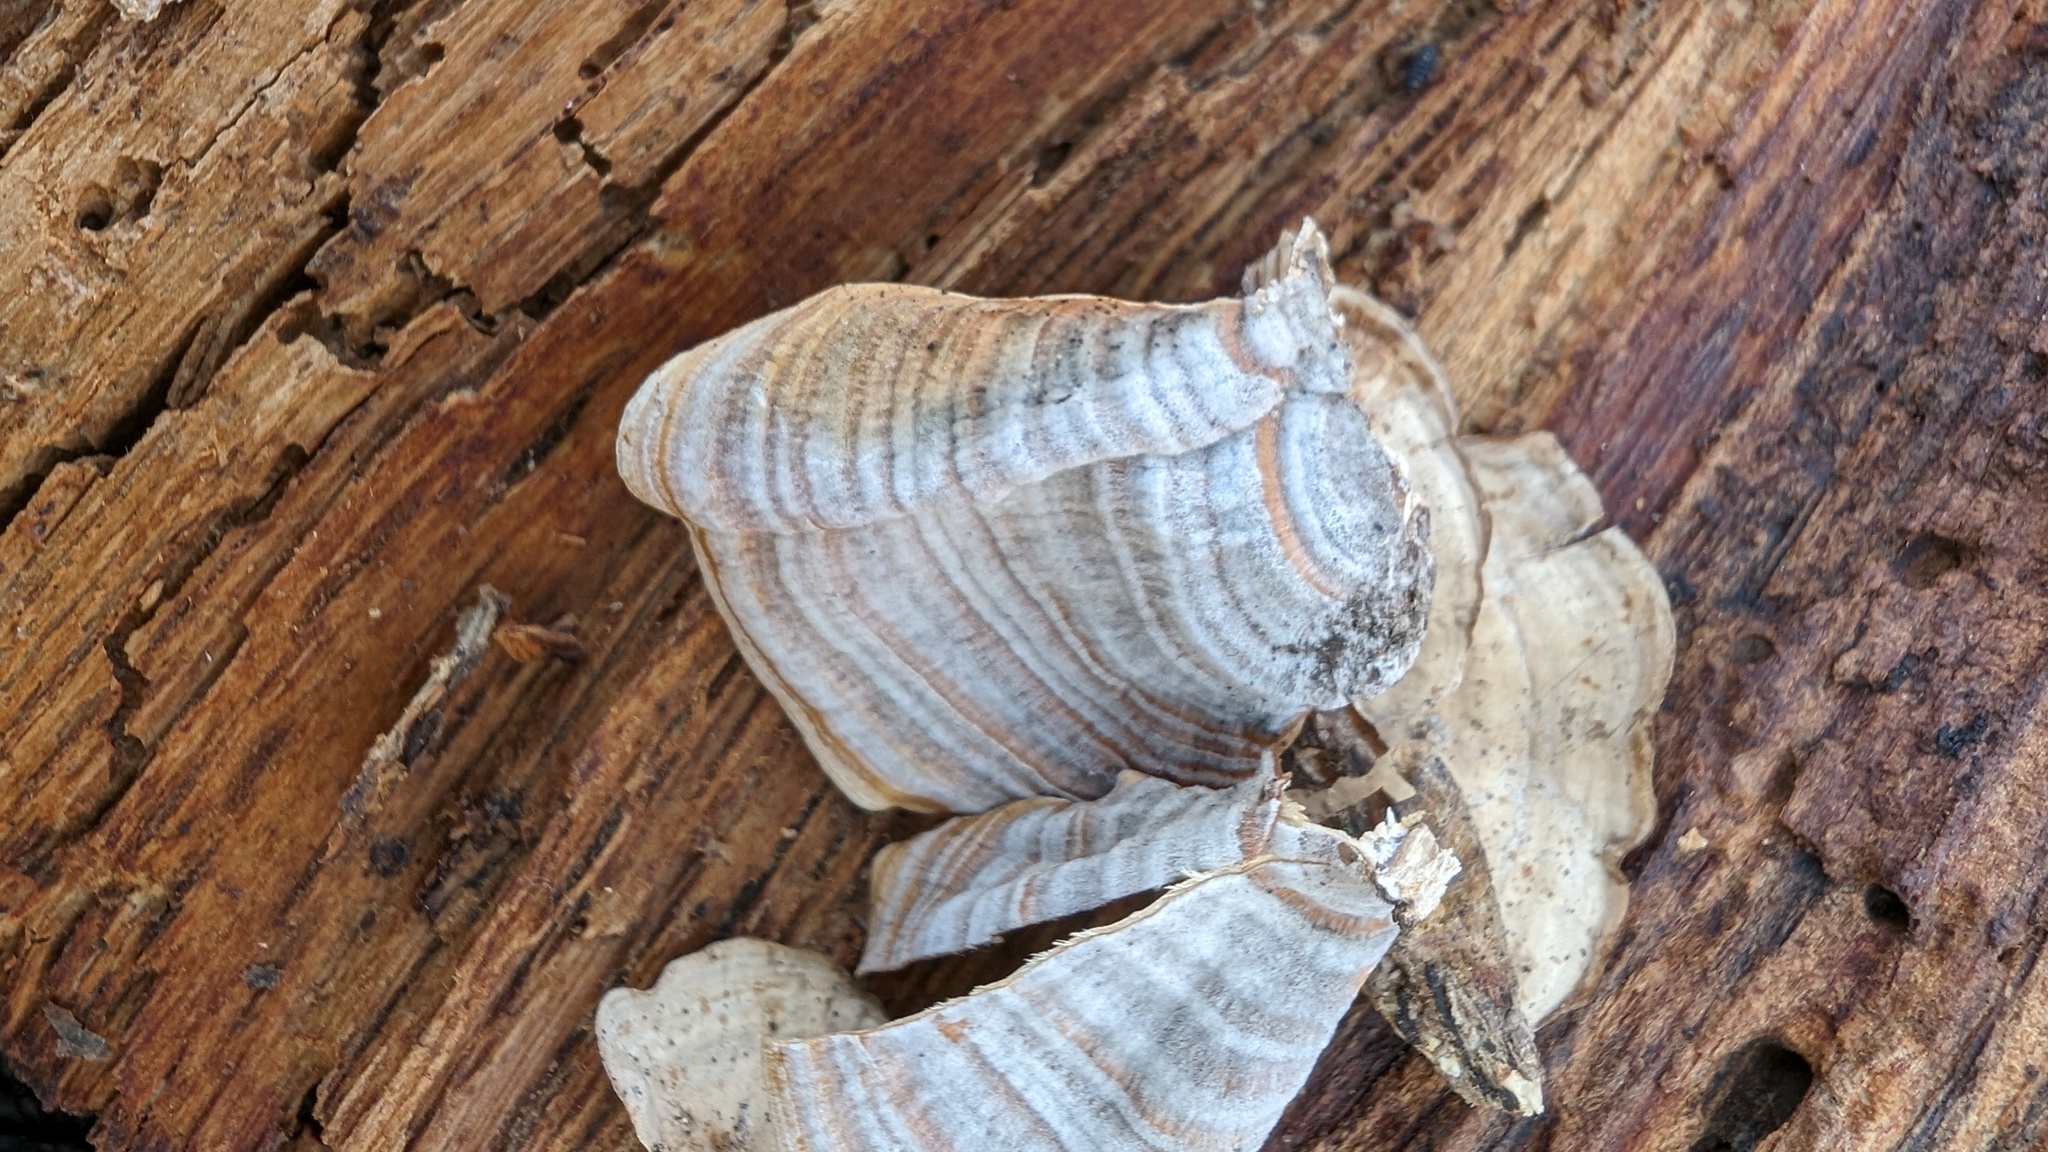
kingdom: Fungi
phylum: Basidiomycota
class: Agaricomycetes
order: Russulales
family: Stereaceae
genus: Stereum
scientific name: Stereum ostrea
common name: False turkeytail
